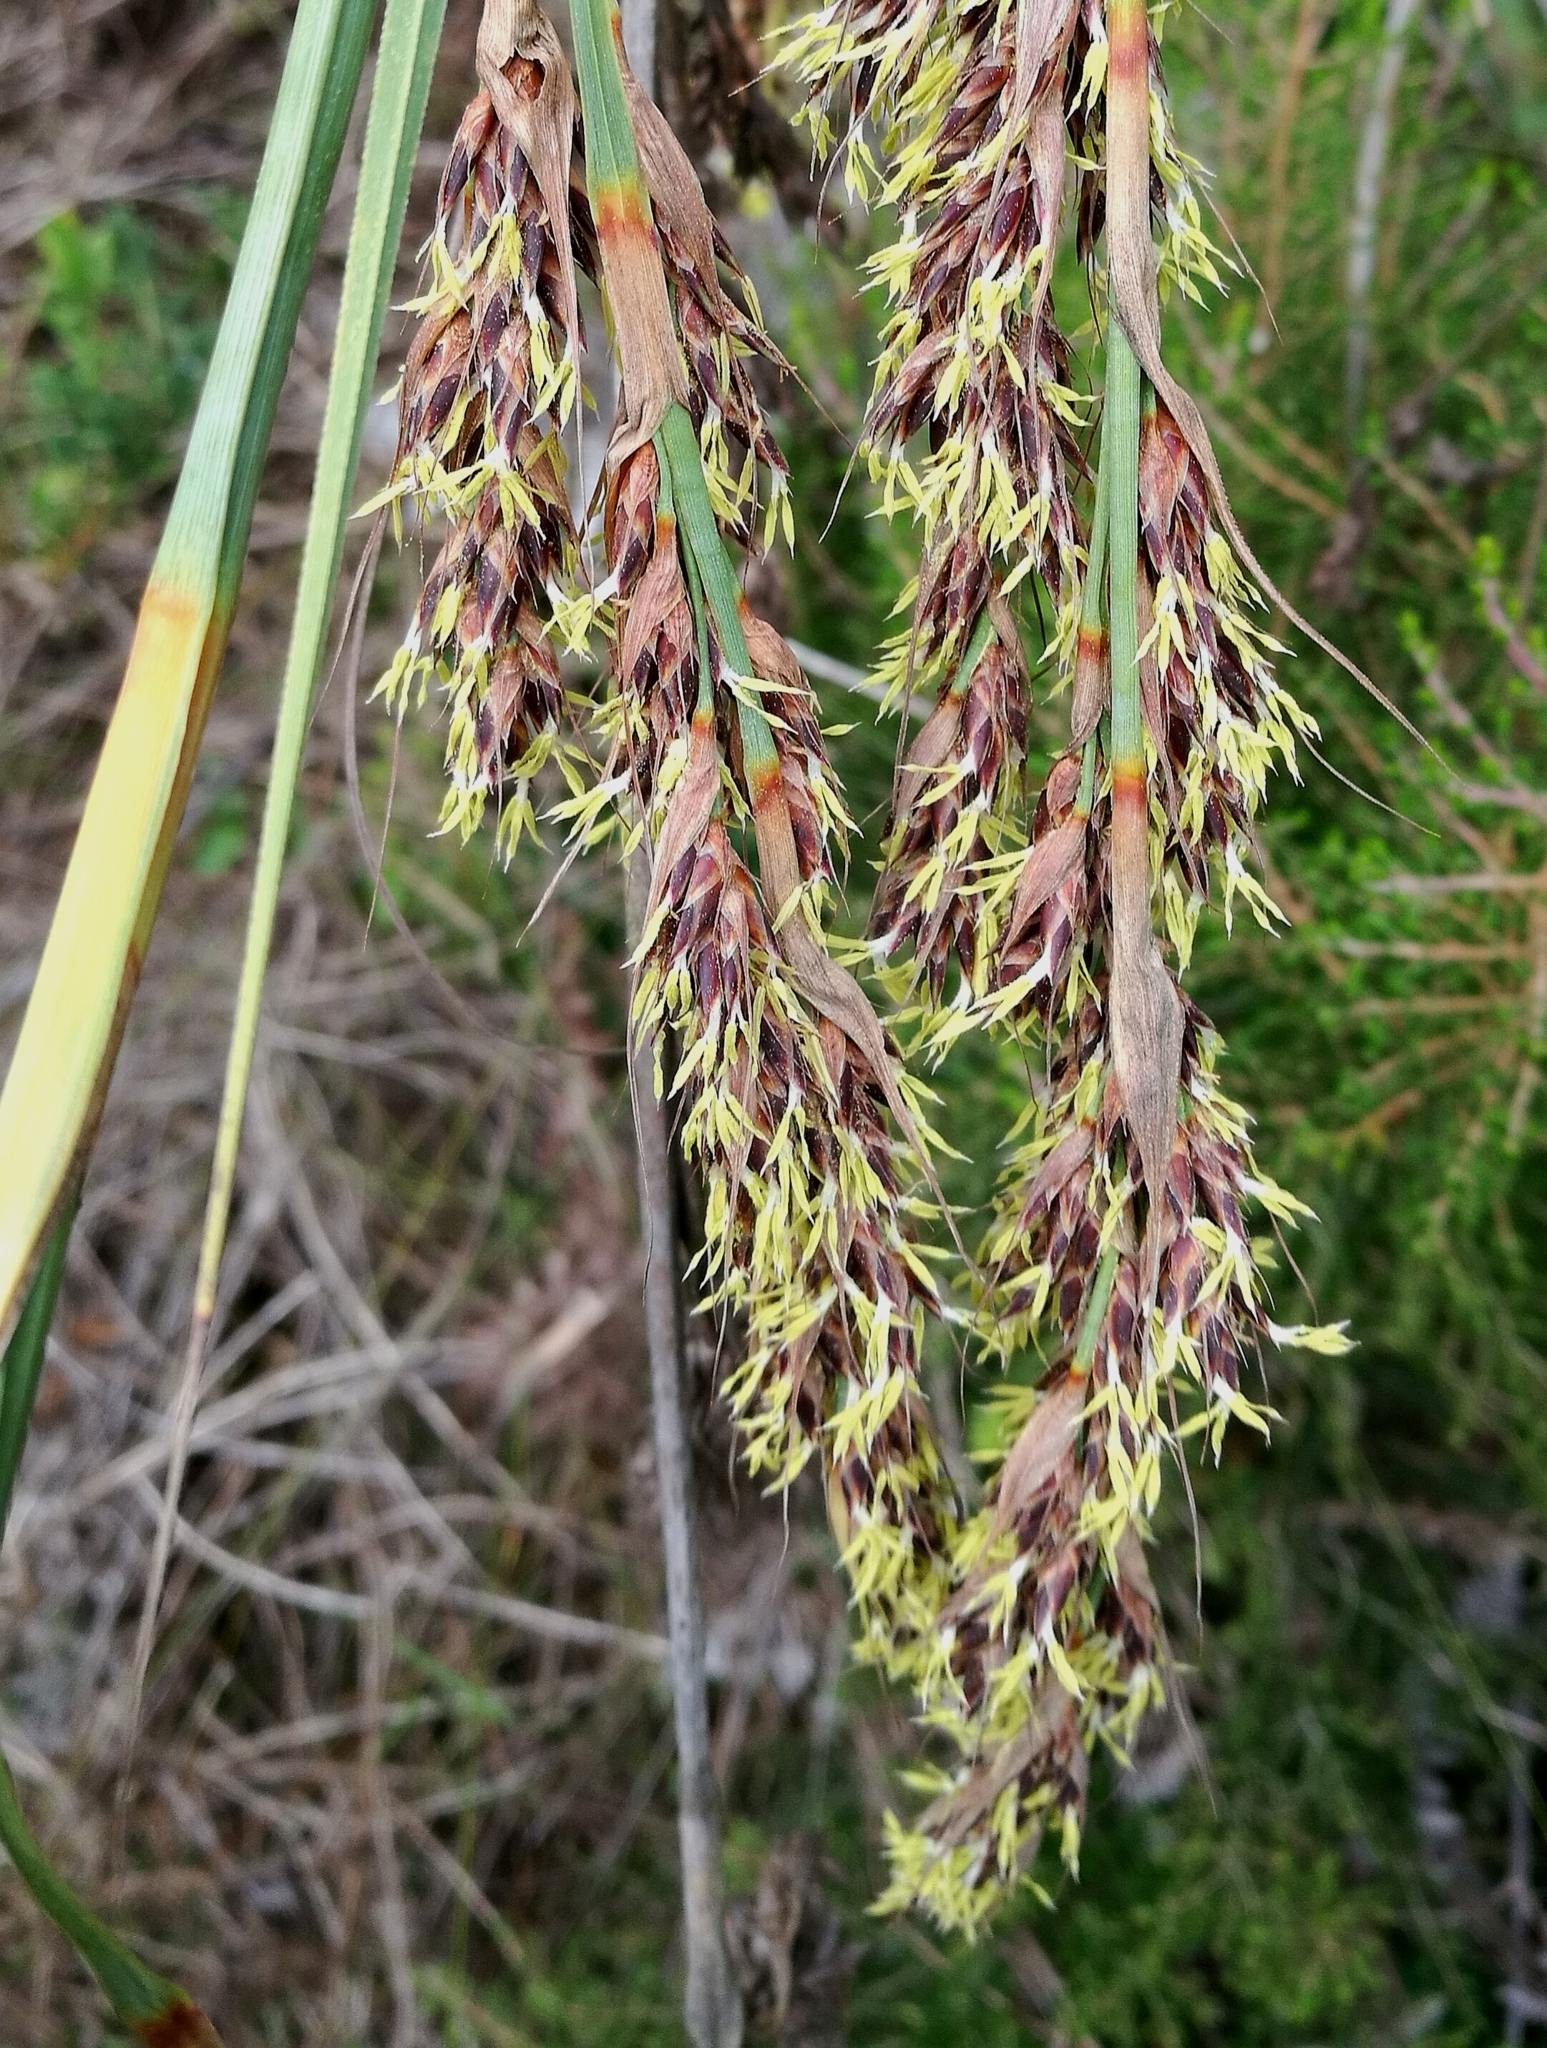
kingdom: Plantae
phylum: Tracheophyta
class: Liliopsida
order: Poales
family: Cyperaceae
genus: Tetraria
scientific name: Tetraria secans
